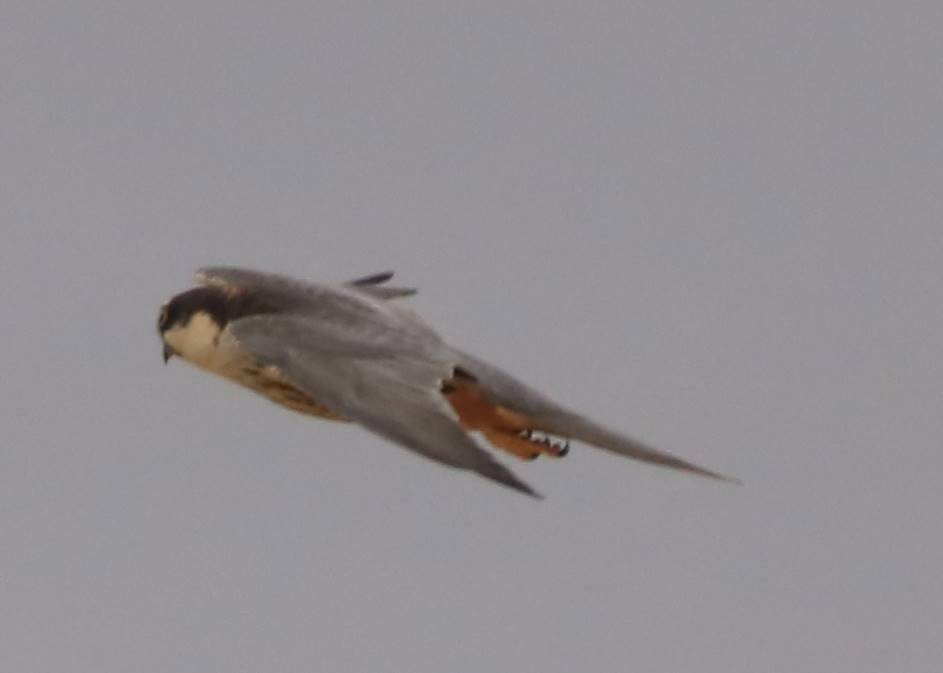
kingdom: Animalia
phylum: Chordata
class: Aves
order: Falconiformes
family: Falconidae
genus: Falco
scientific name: Falco subbuteo
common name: Eurasian hobby
